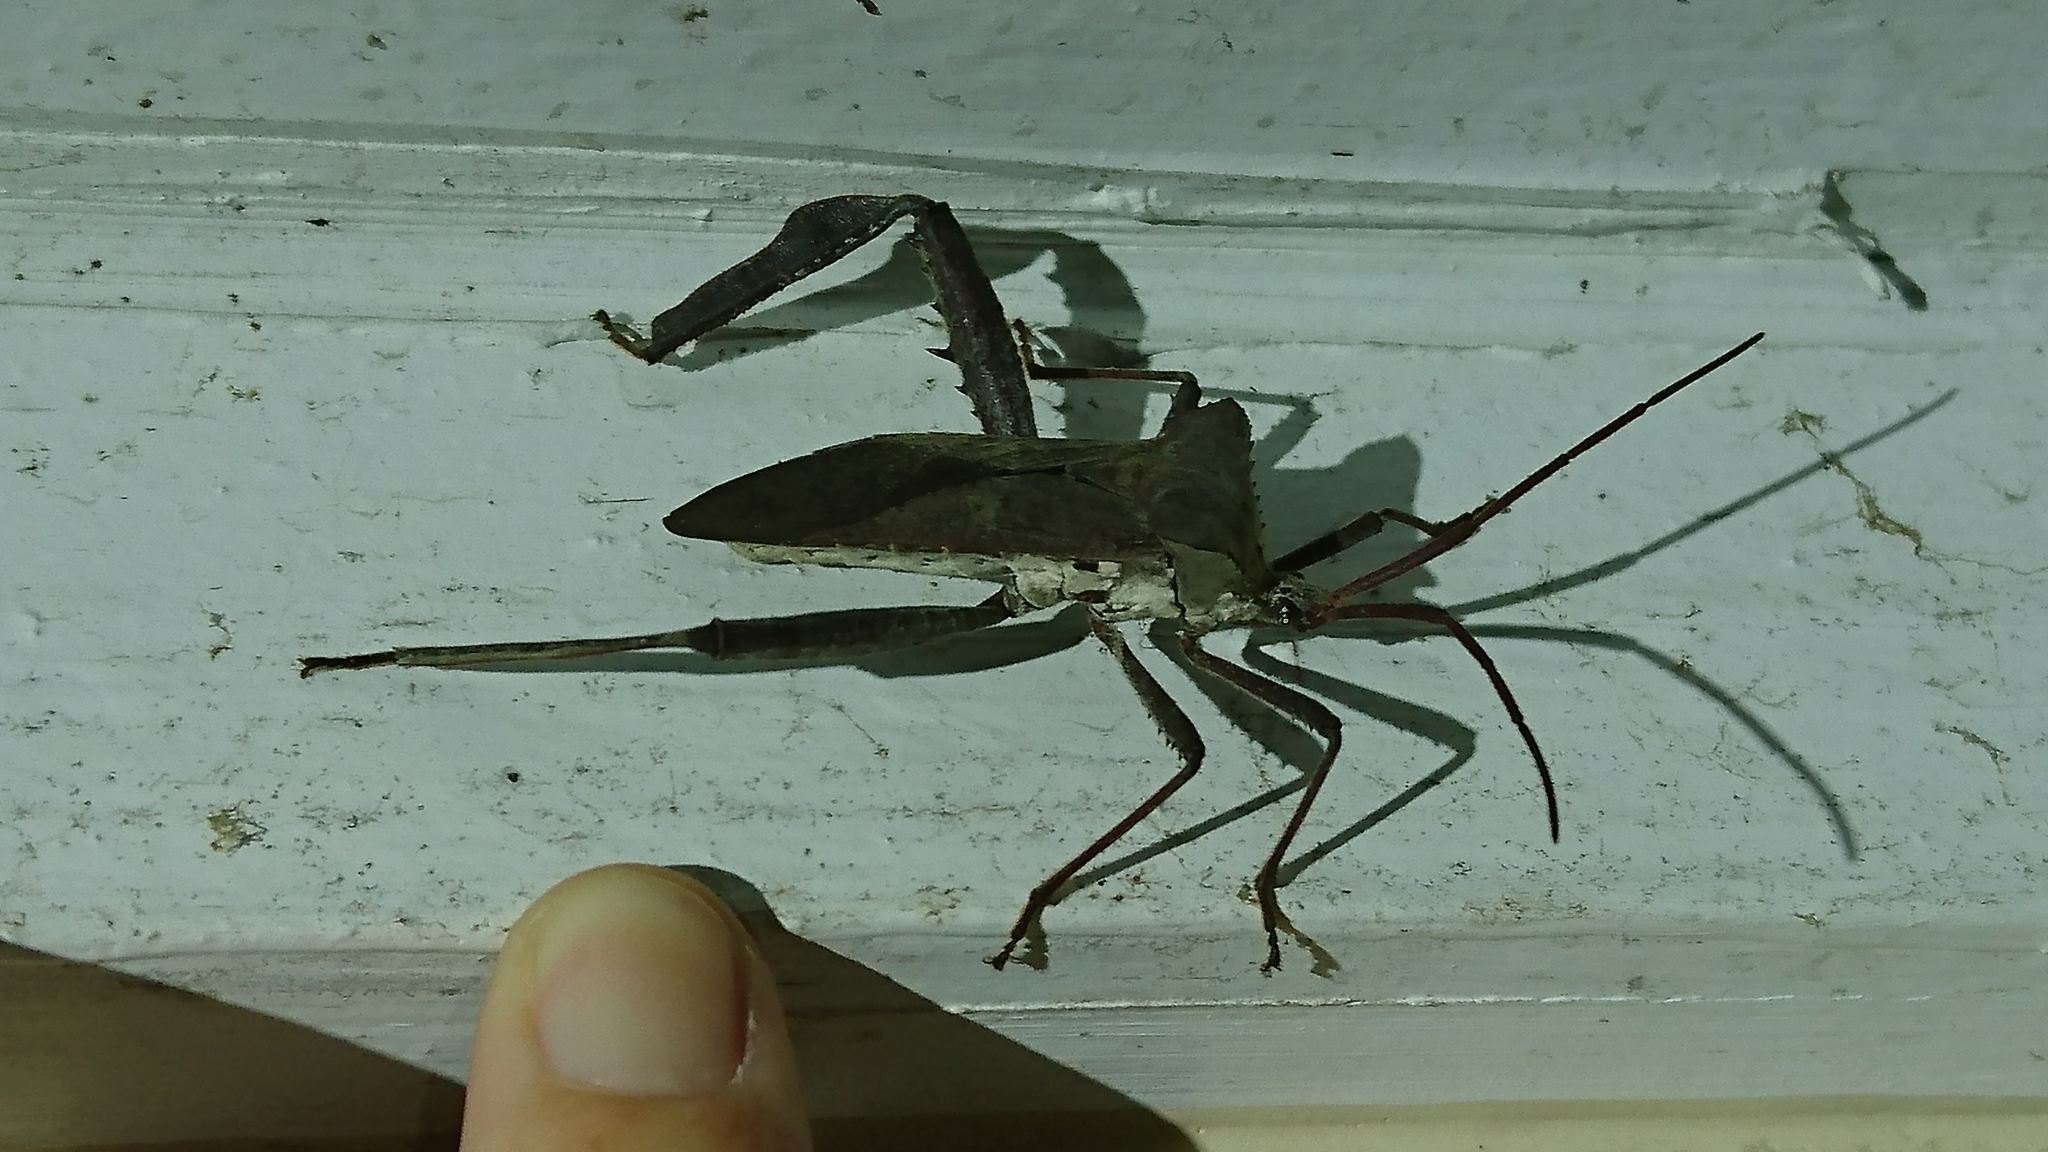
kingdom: Animalia
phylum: Arthropoda
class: Insecta
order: Hemiptera
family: Coreidae
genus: Acanthocephala
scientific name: Acanthocephala declivis
